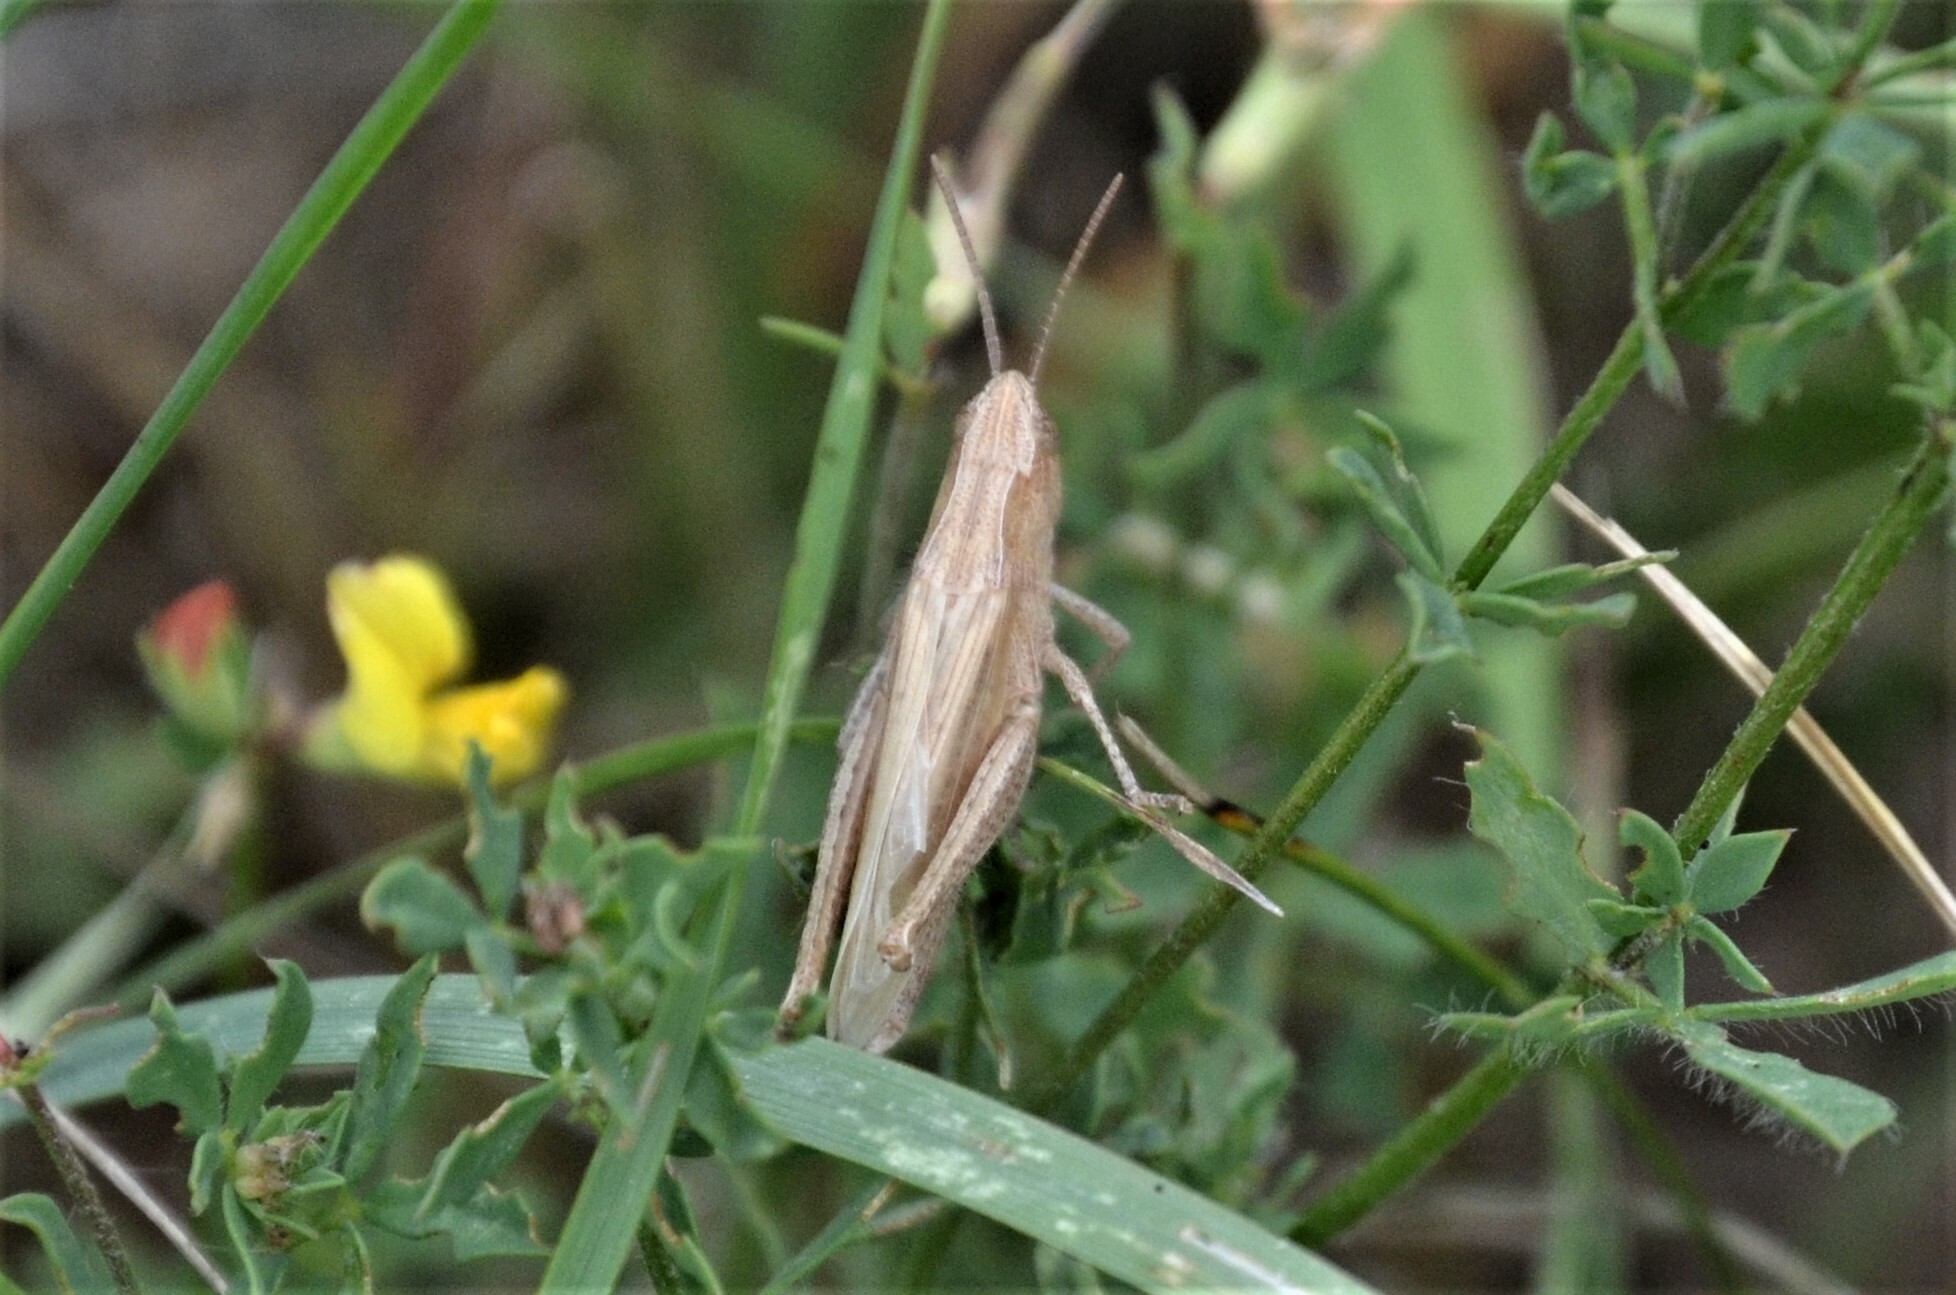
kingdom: Animalia
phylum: Arthropoda
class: Insecta
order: Orthoptera
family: Acrididae
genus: Chorthippus
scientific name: Chorthippus dorsatus
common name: Steppe grasshopper
